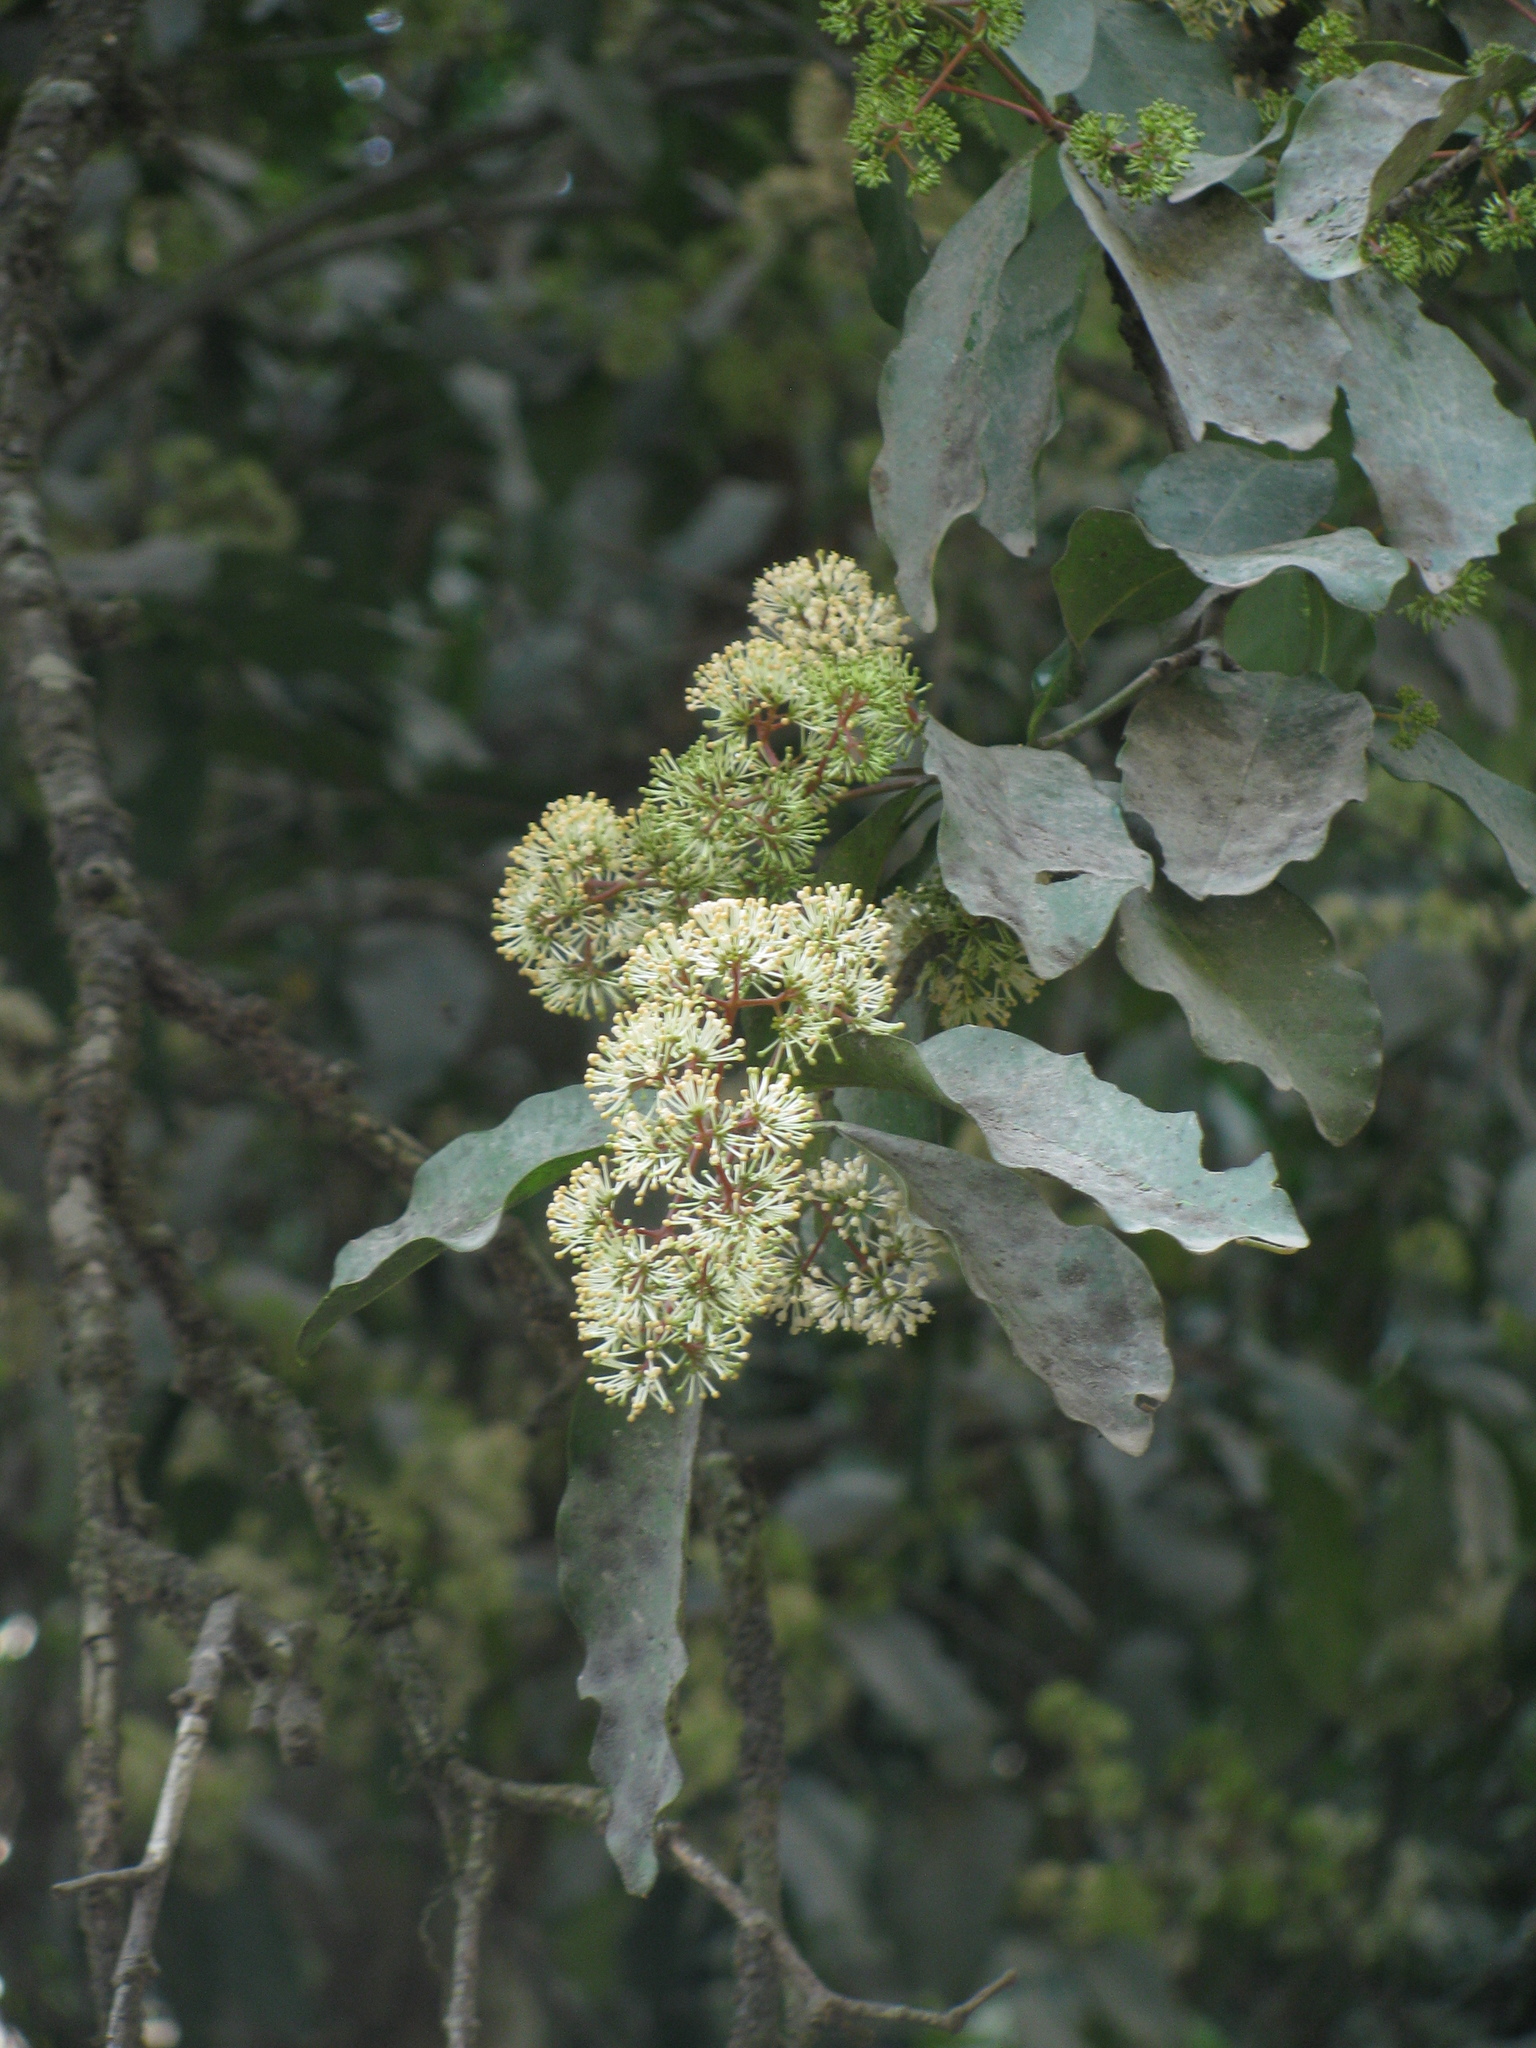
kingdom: Plantae
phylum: Tracheophyta
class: Magnoliopsida
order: Gentianales
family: Rubiaceae
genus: Ixora
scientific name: Ixora brachiata
